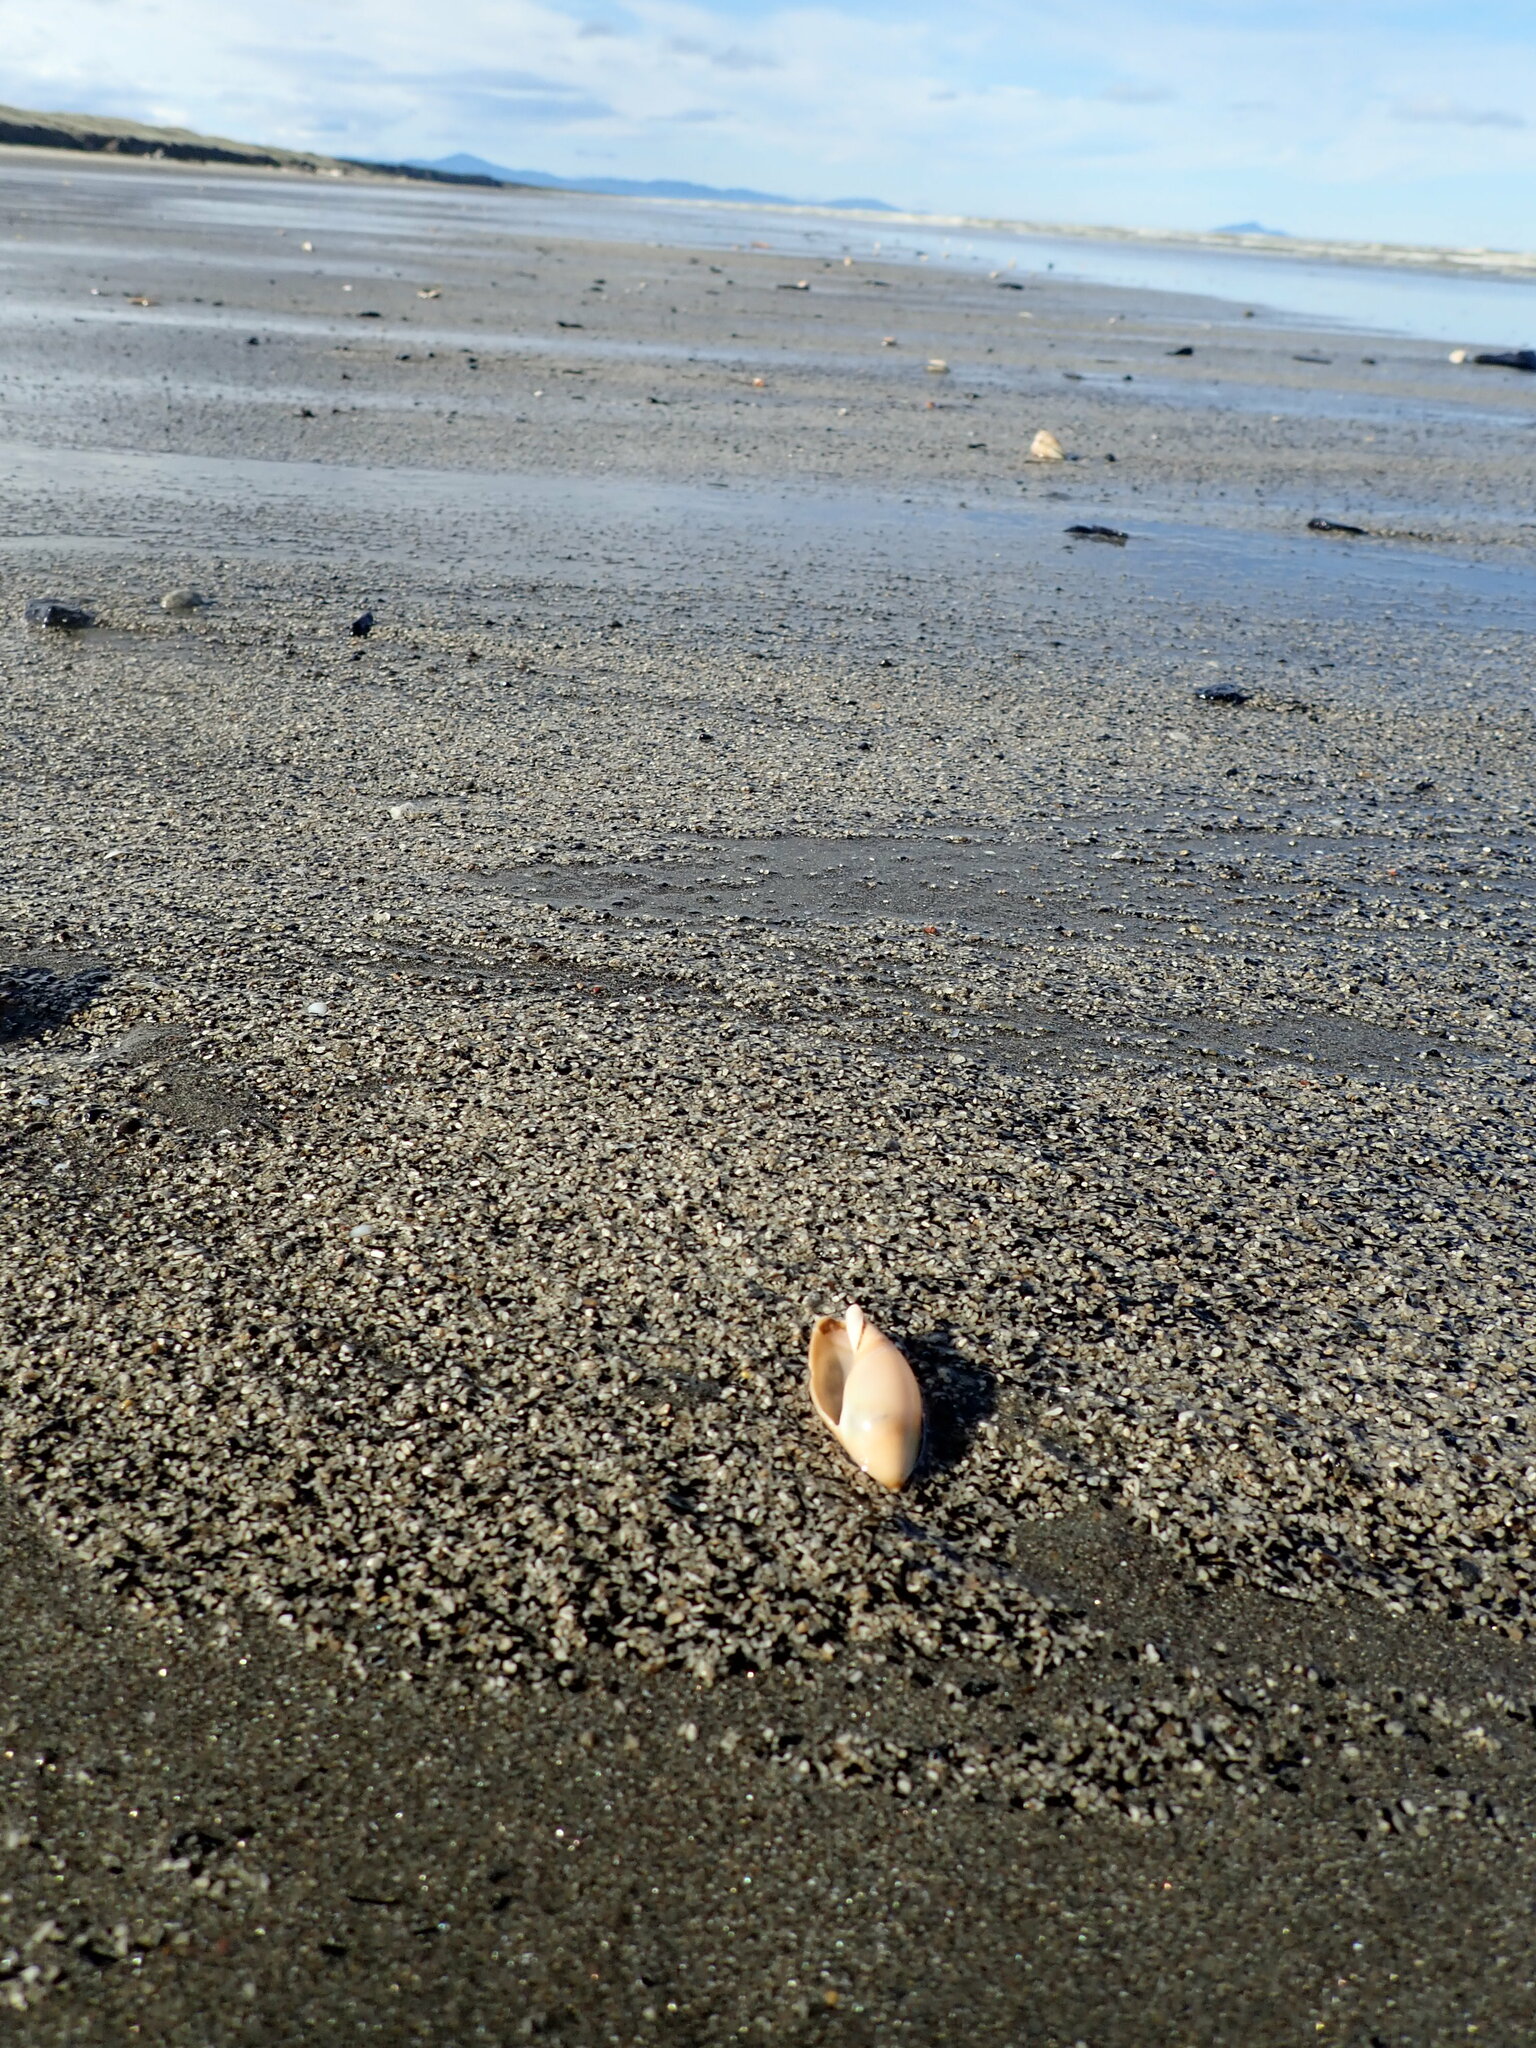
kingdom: Animalia
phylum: Mollusca
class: Gastropoda
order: Neogastropoda
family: Ancillariidae
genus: Amalda
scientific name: Amalda mucronata
